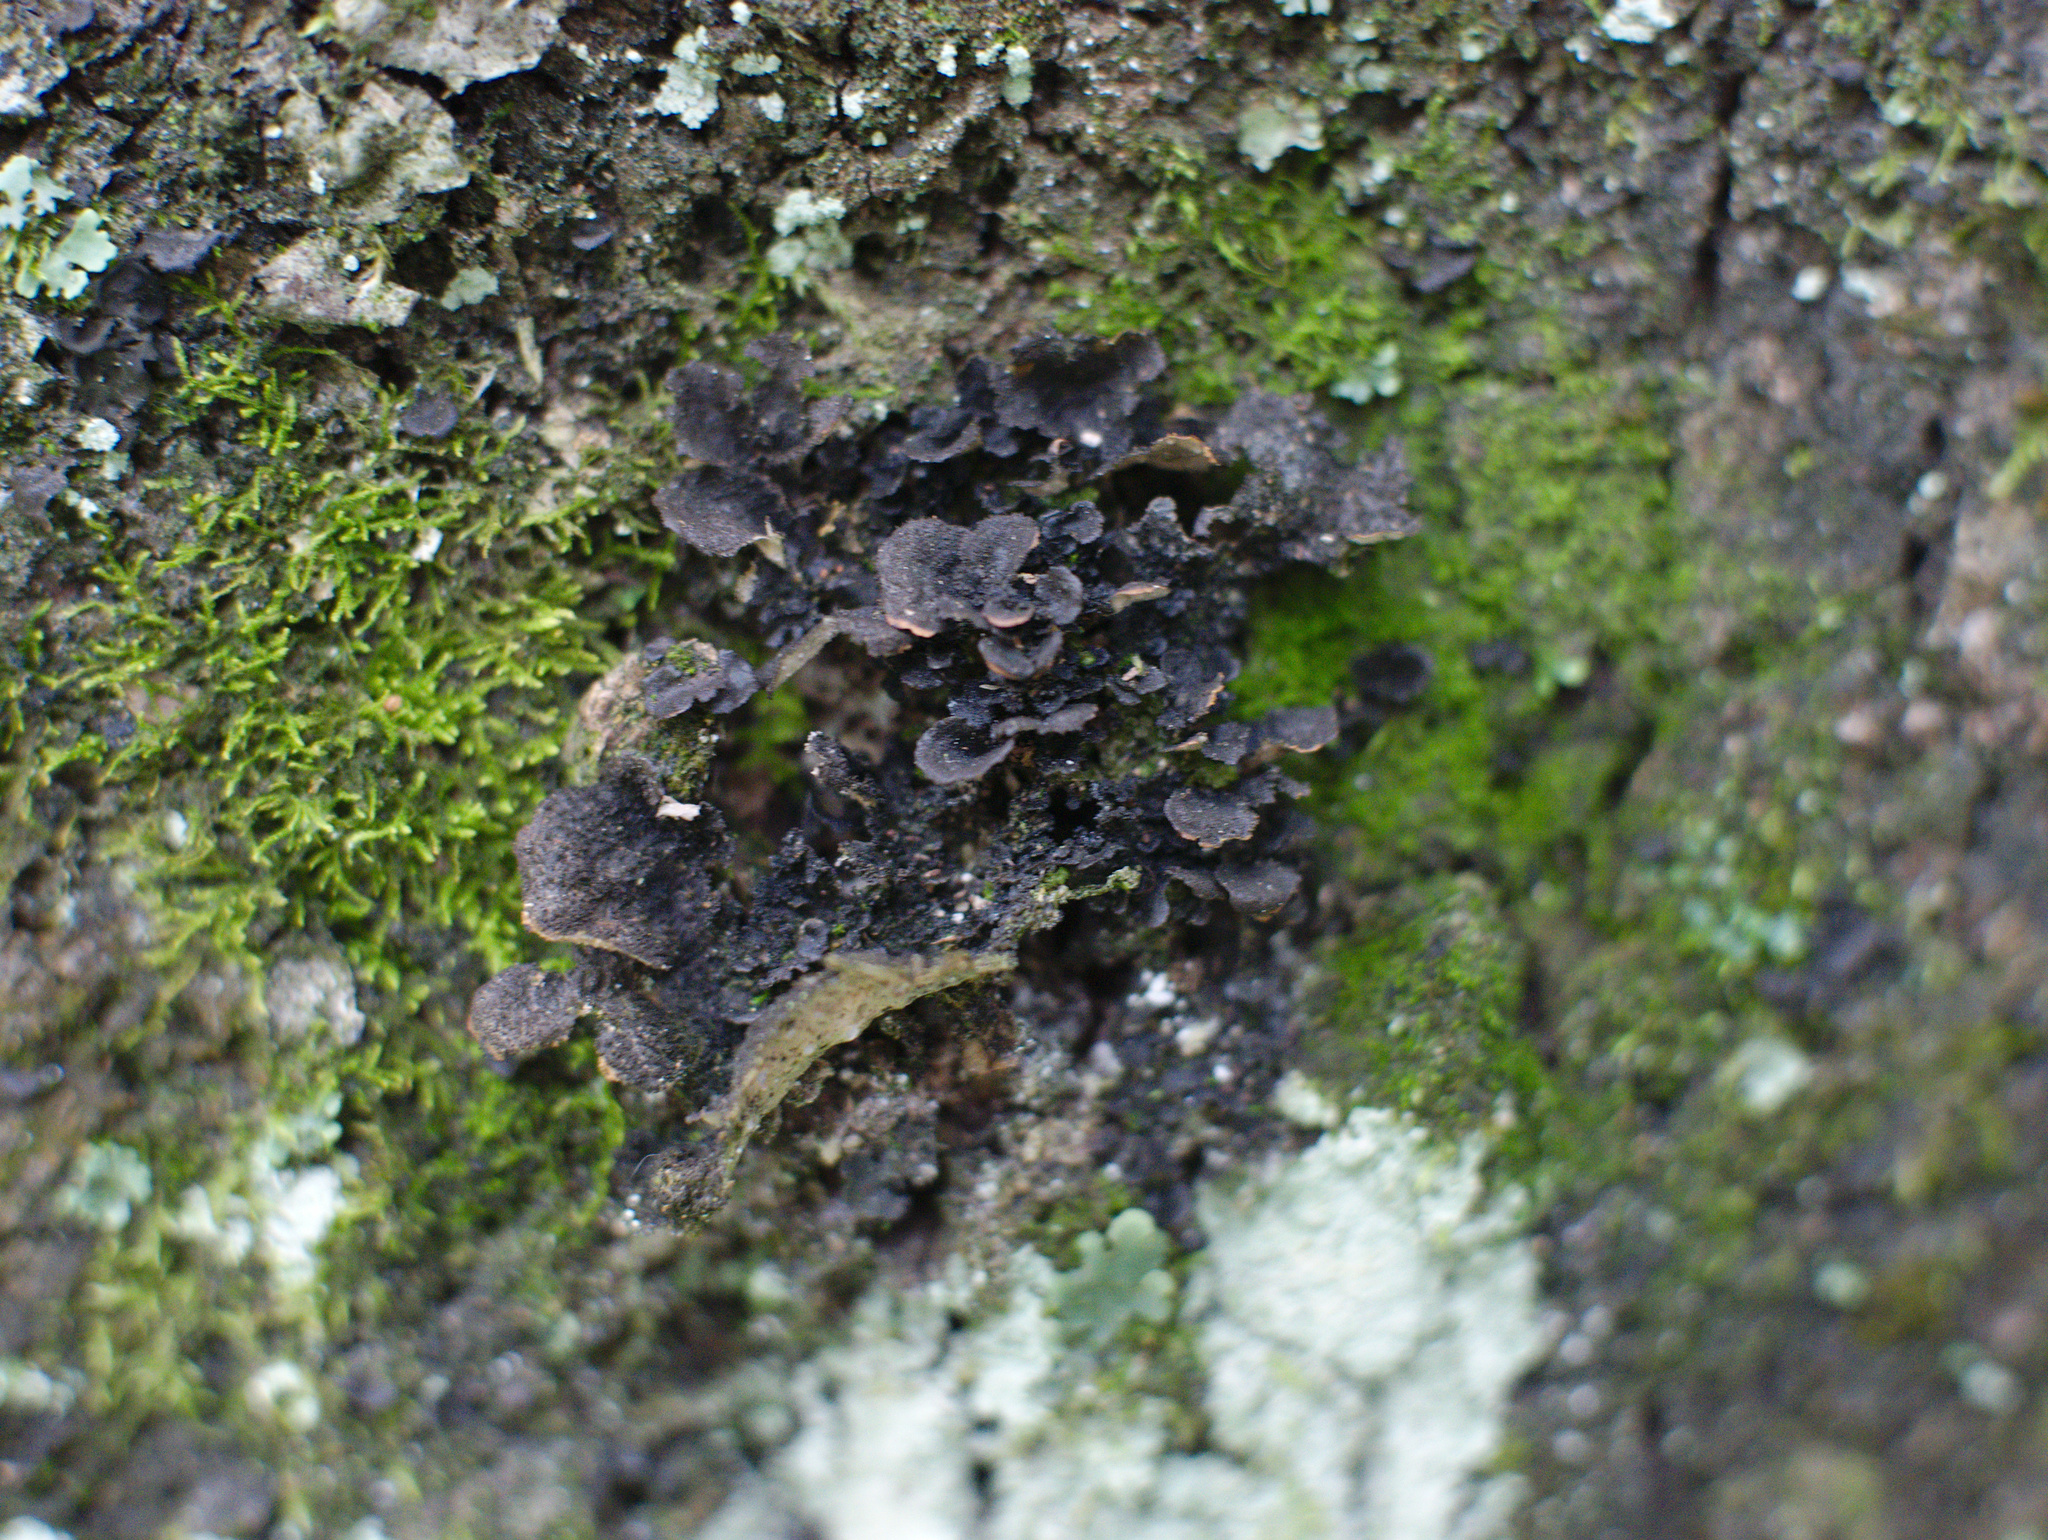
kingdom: Fungi
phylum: Ascomycota
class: Lecanoromycetes
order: Peltigerales
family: Lobariaceae
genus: Sticta
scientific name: Sticta fuliginosa
